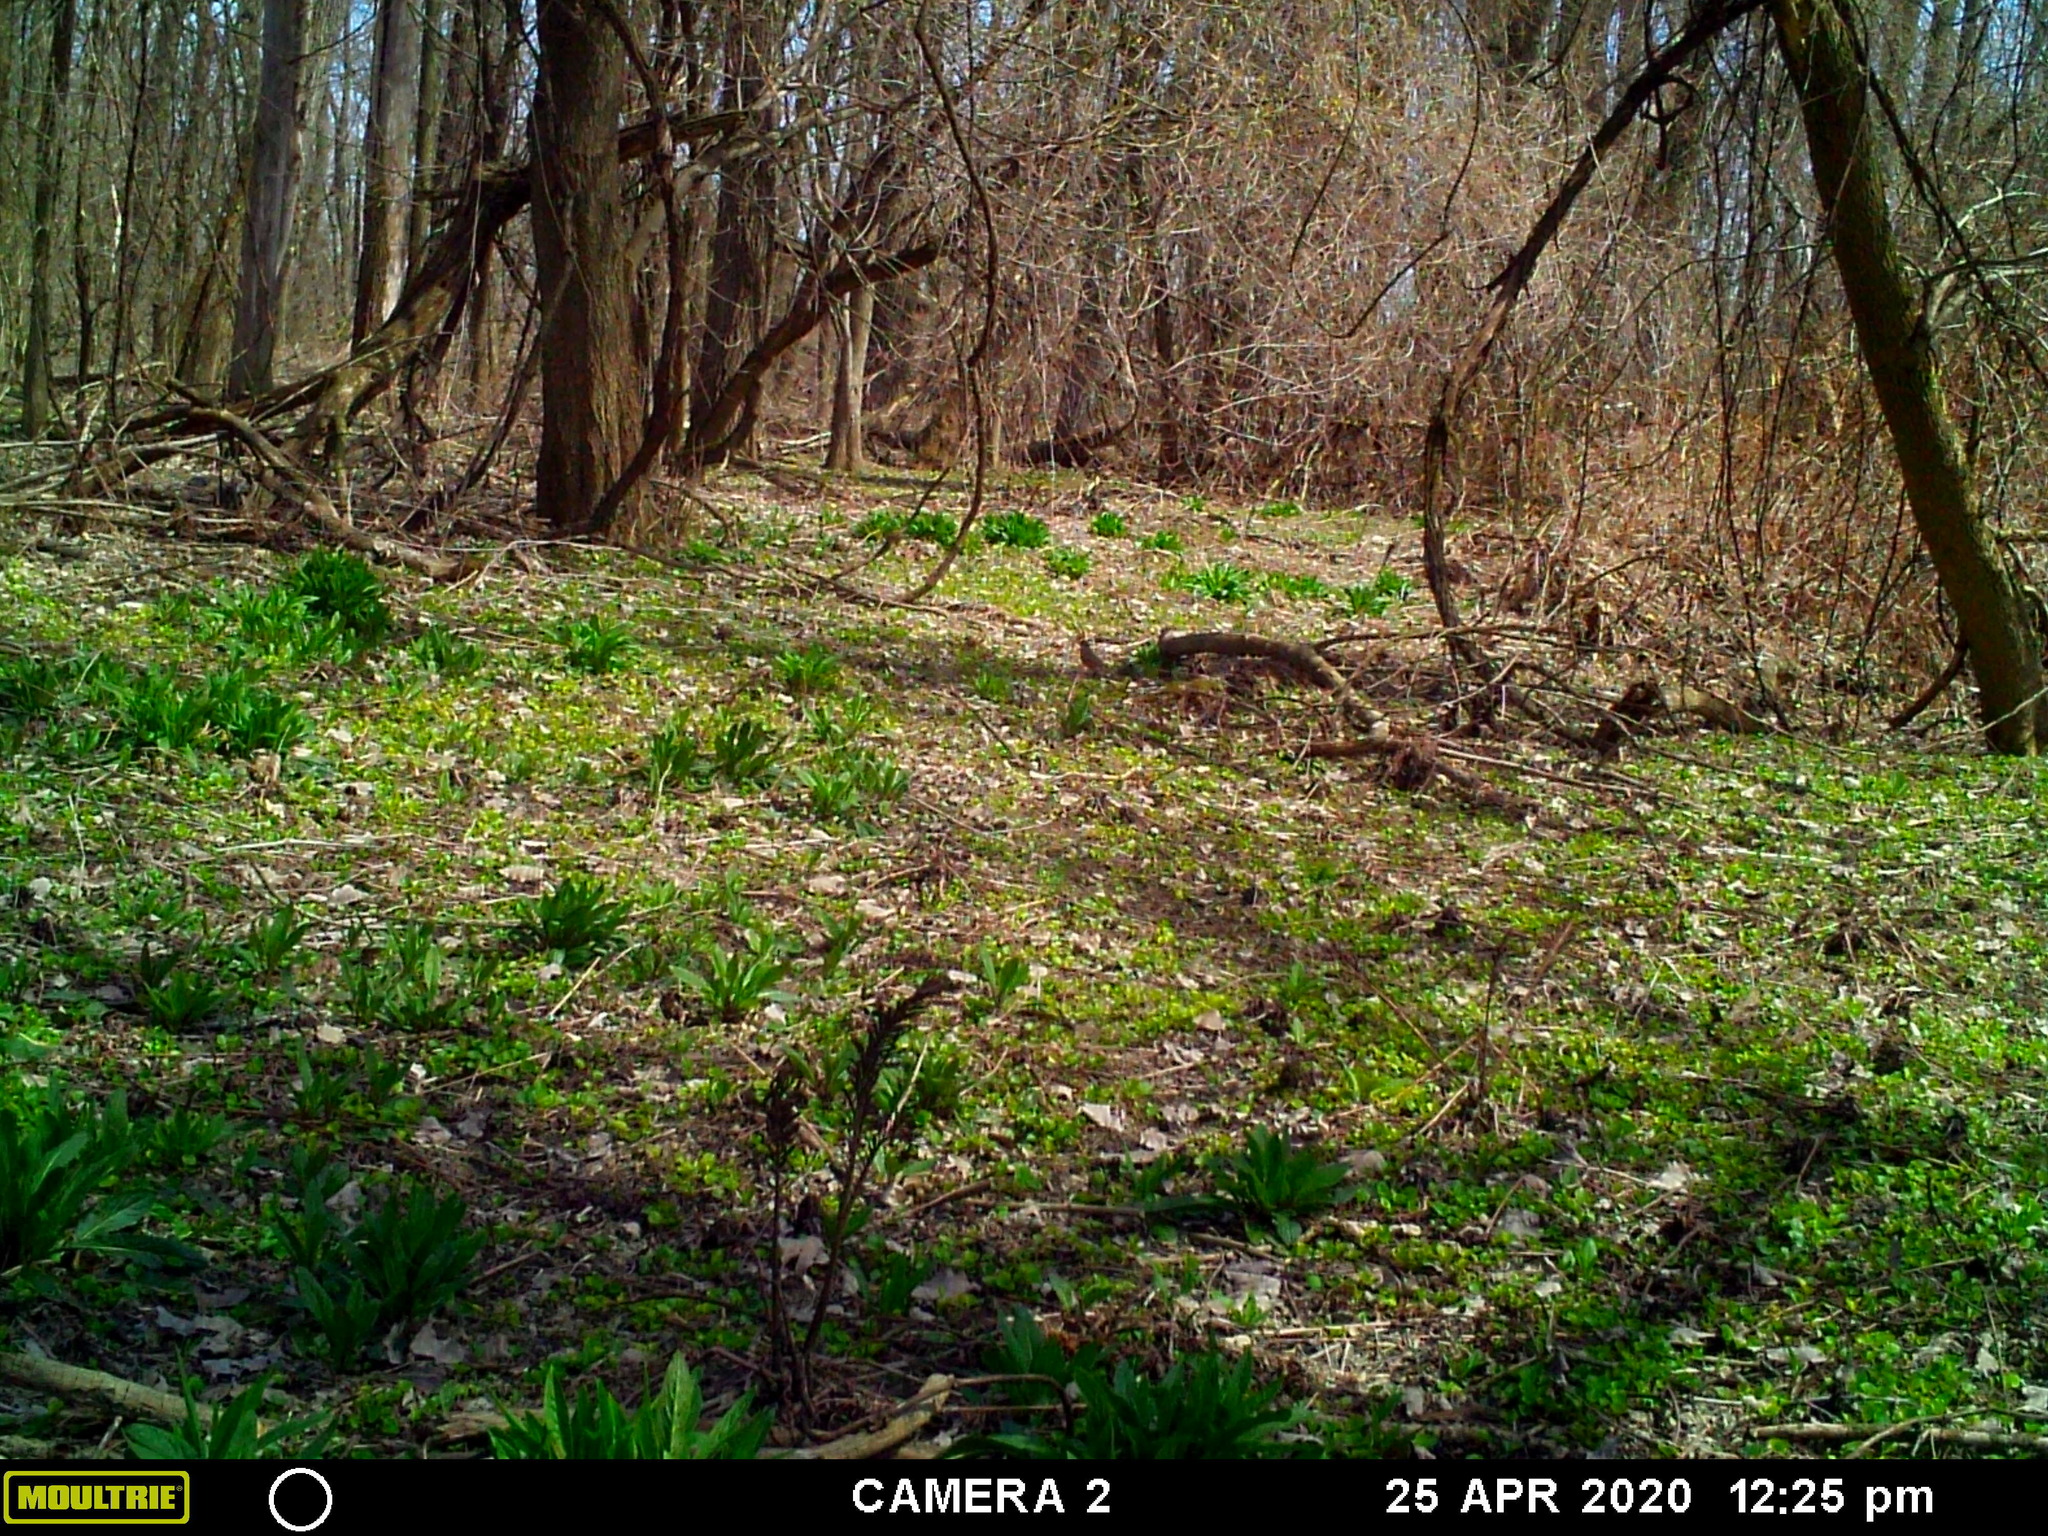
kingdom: Animalia
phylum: Chordata
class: Aves
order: Passeriformes
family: Turdidae
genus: Turdus
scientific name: Turdus migratorius
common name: American robin
